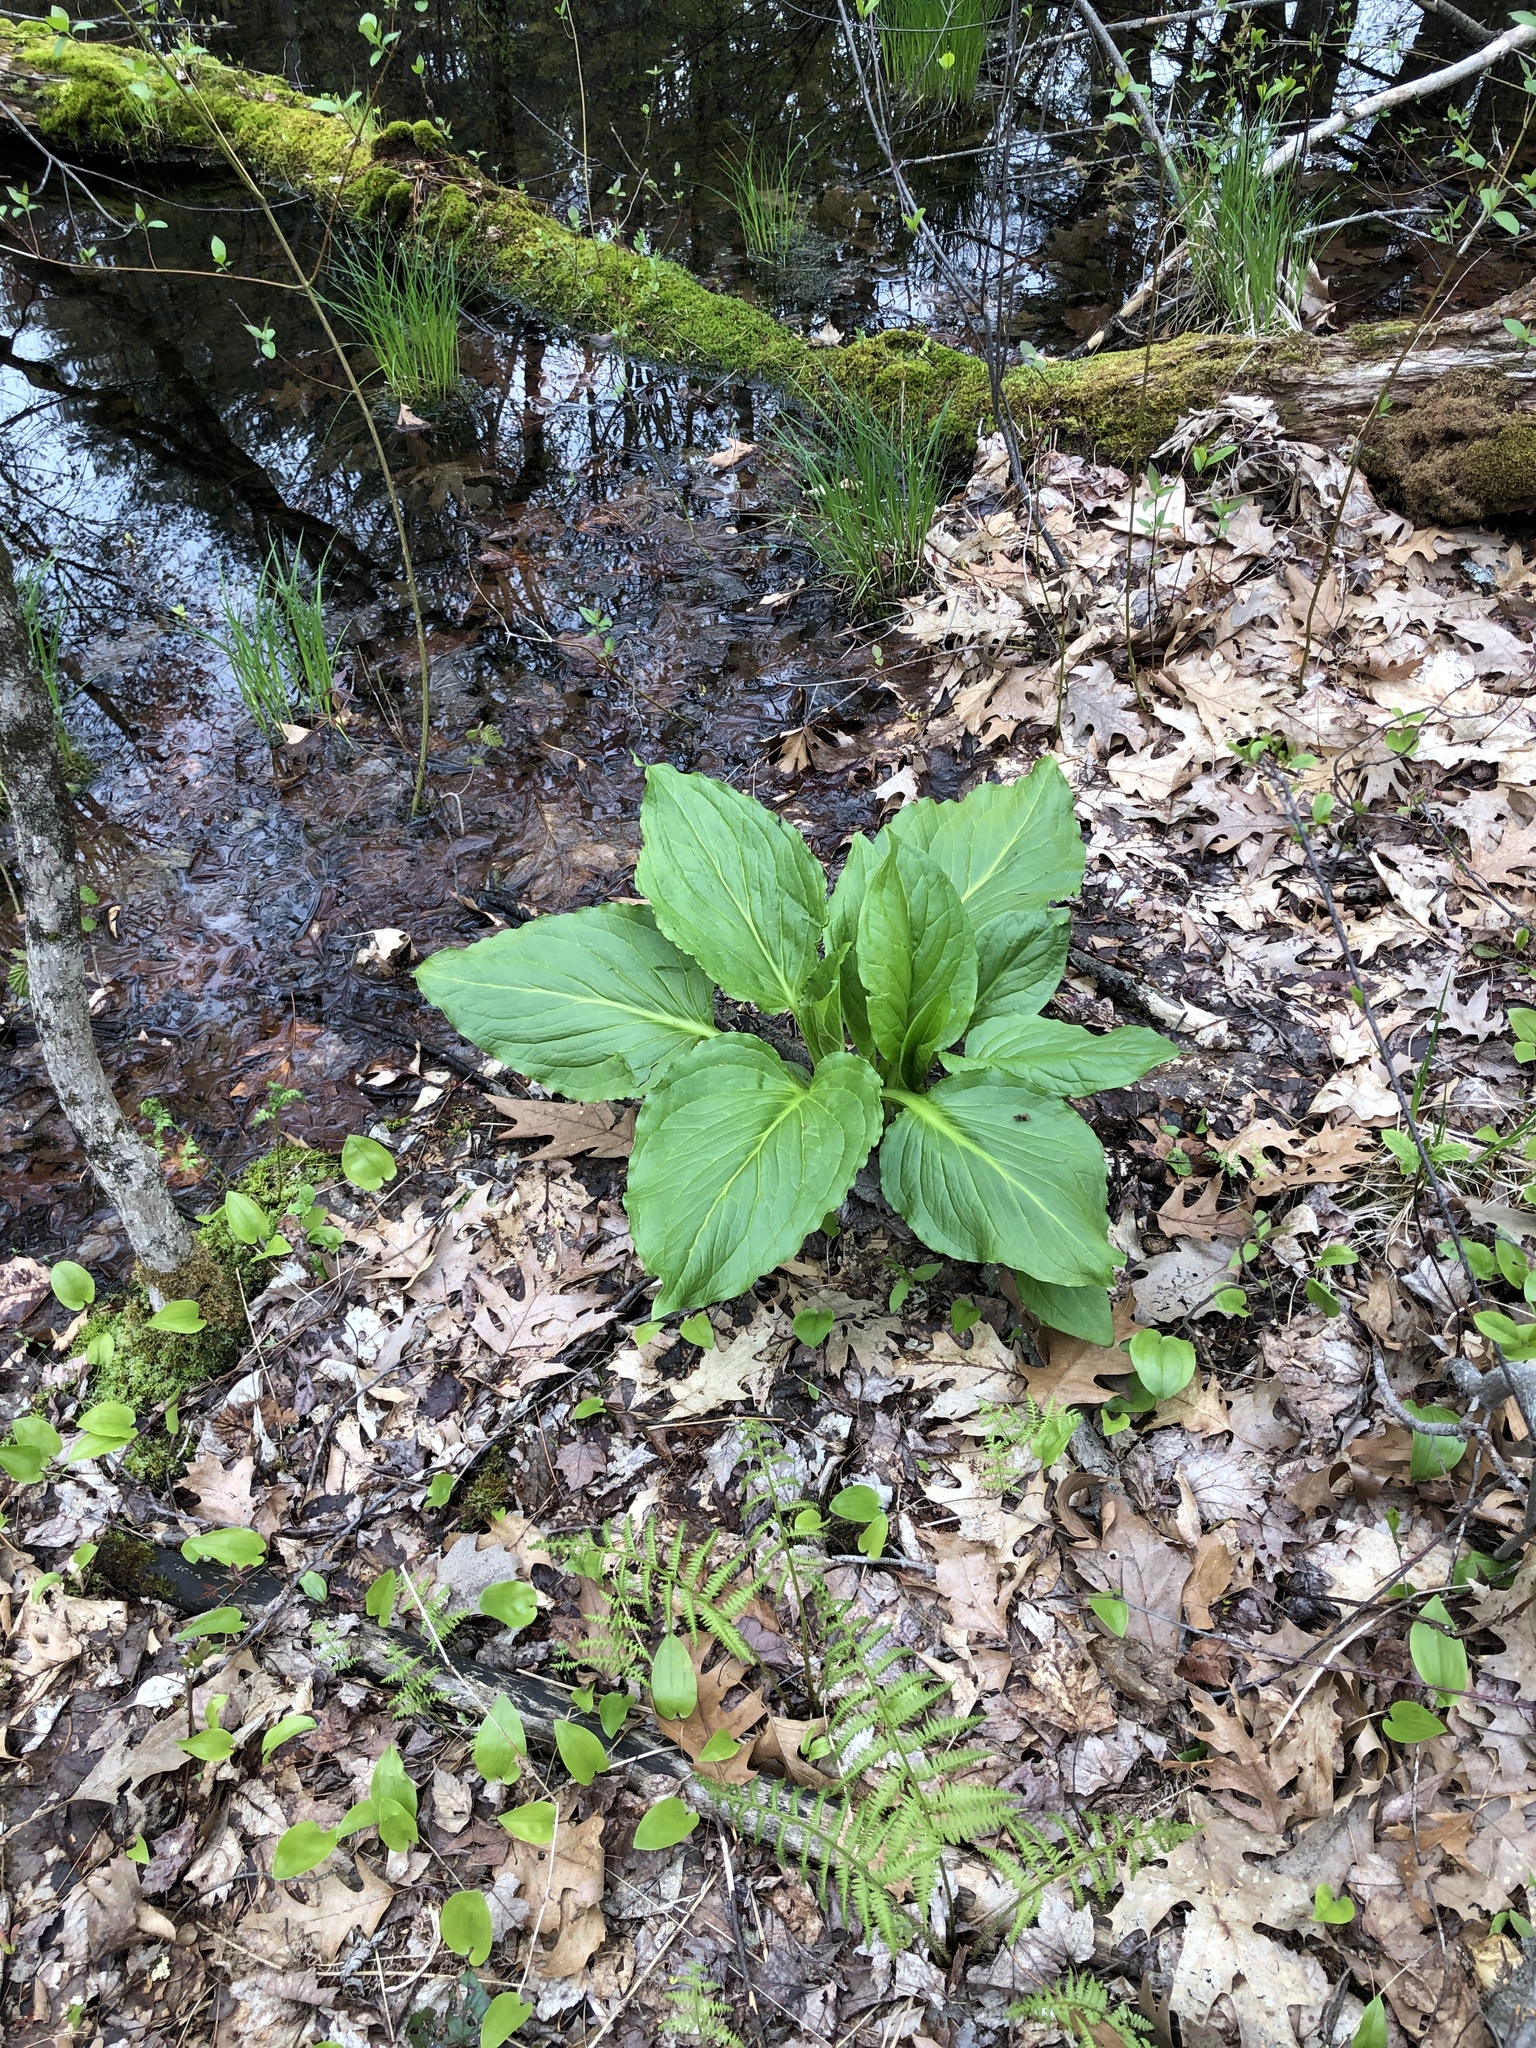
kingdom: Plantae
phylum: Tracheophyta
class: Liliopsida
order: Alismatales
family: Araceae
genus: Symplocarpus
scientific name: Symplocarpus foetidus
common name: Eastern skunk cabbage
